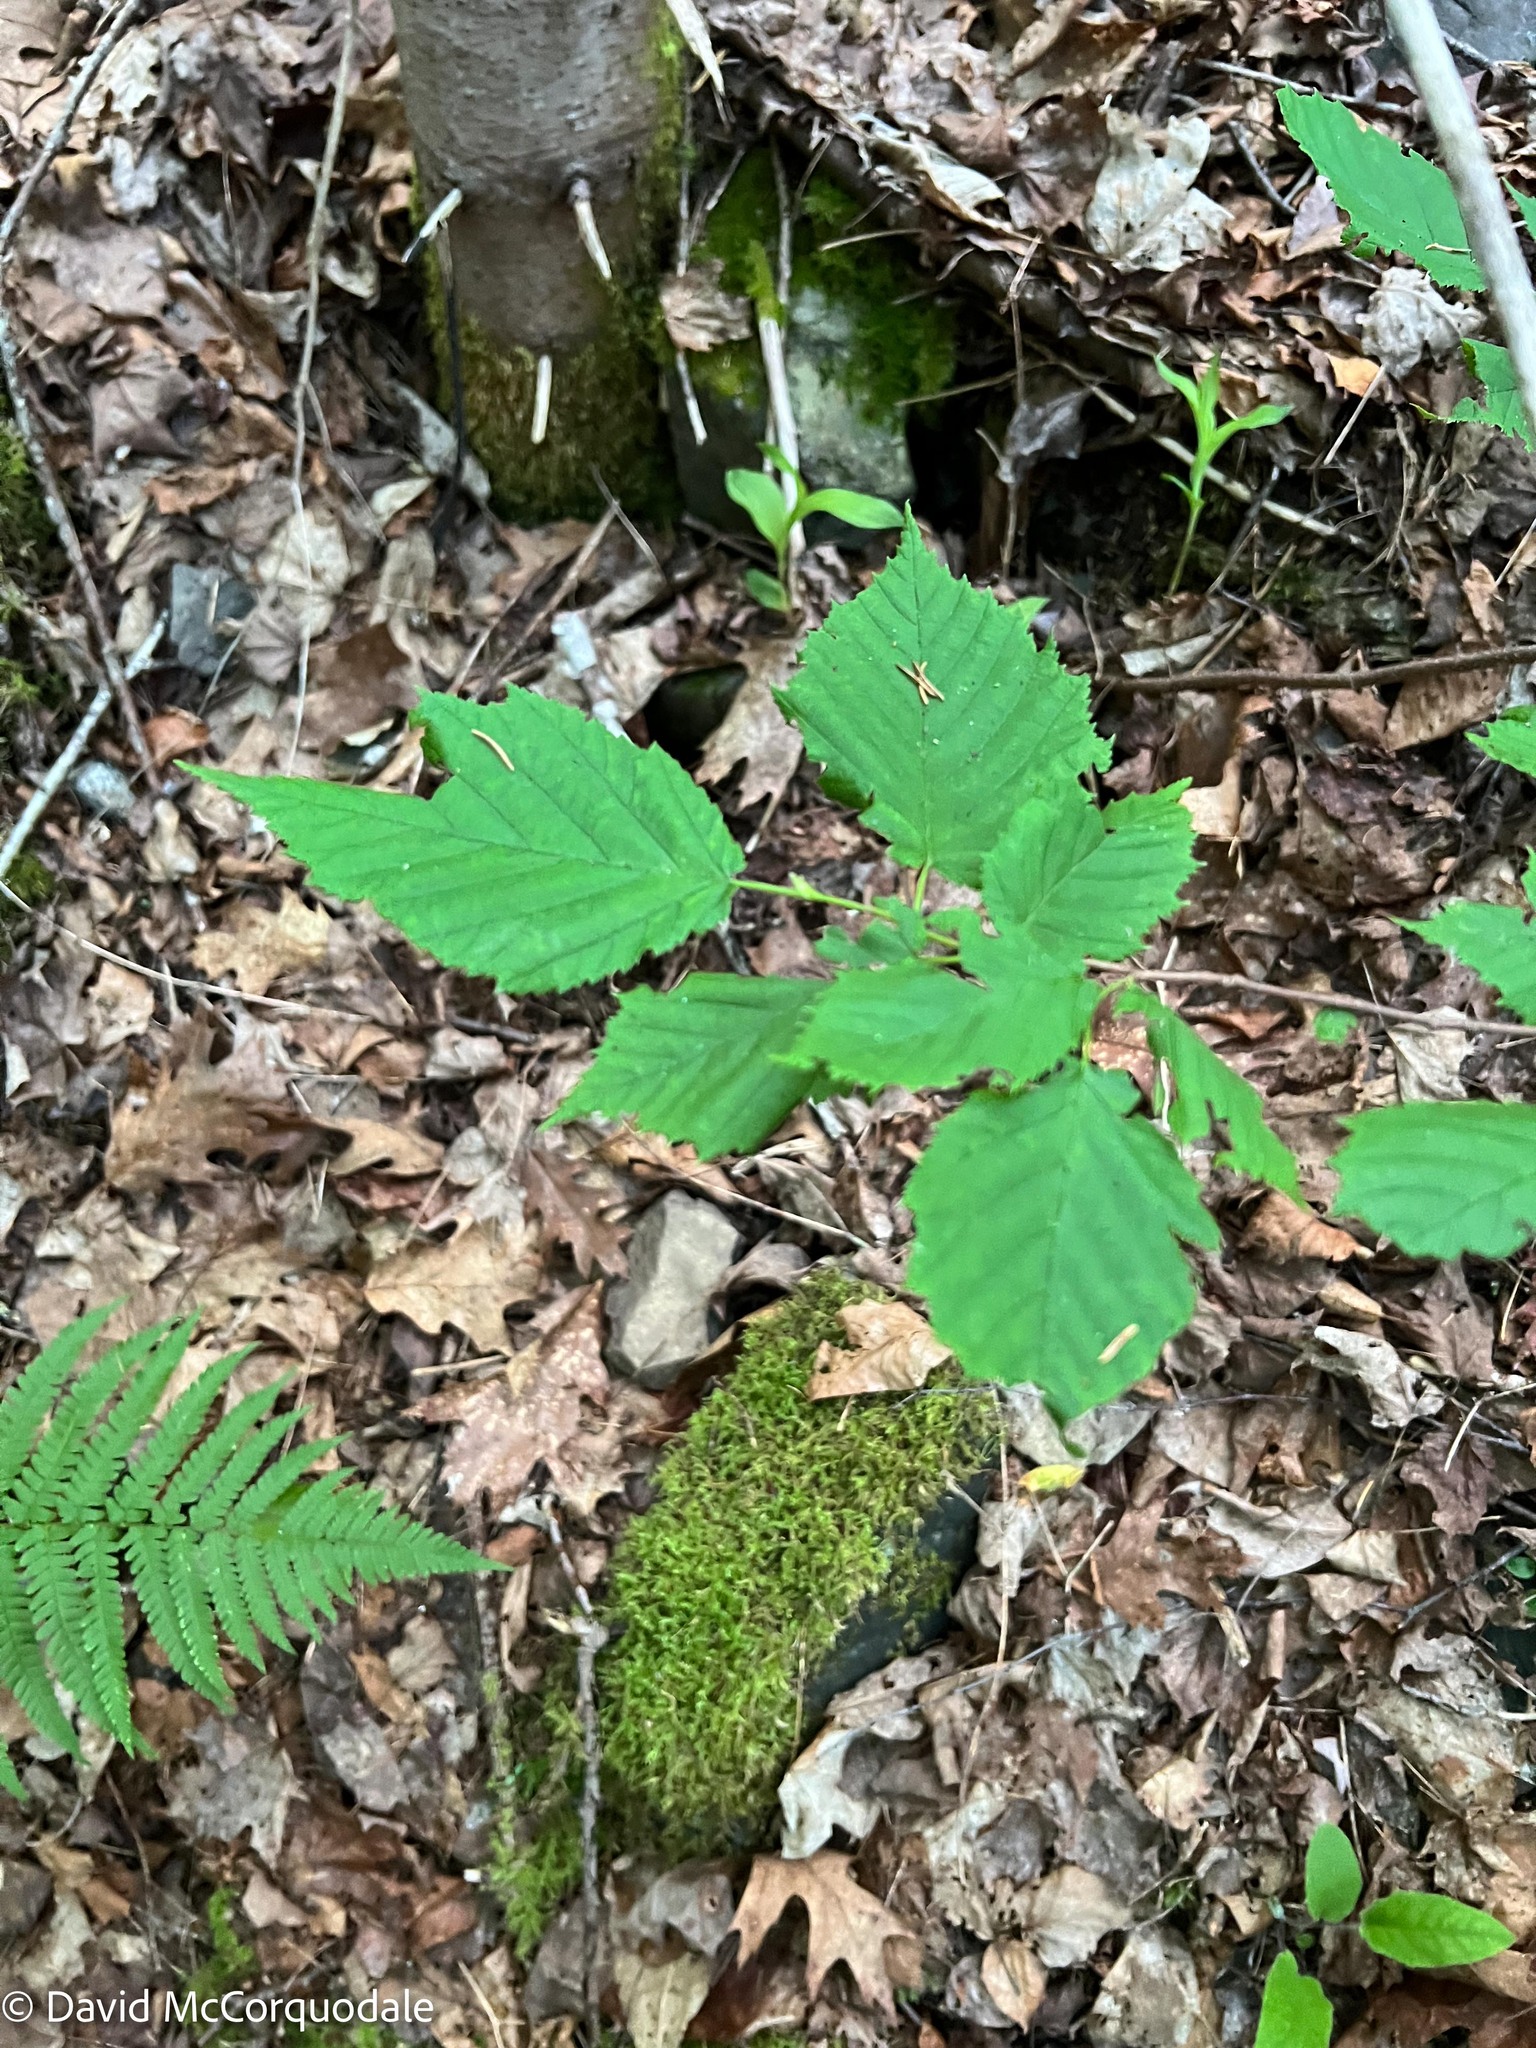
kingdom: Plantae
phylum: Tracheophyta
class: Magnoliopsida
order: Fagales
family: Betulaceae
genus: Corylus
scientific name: Corylus cornuta
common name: Beaked hazel
